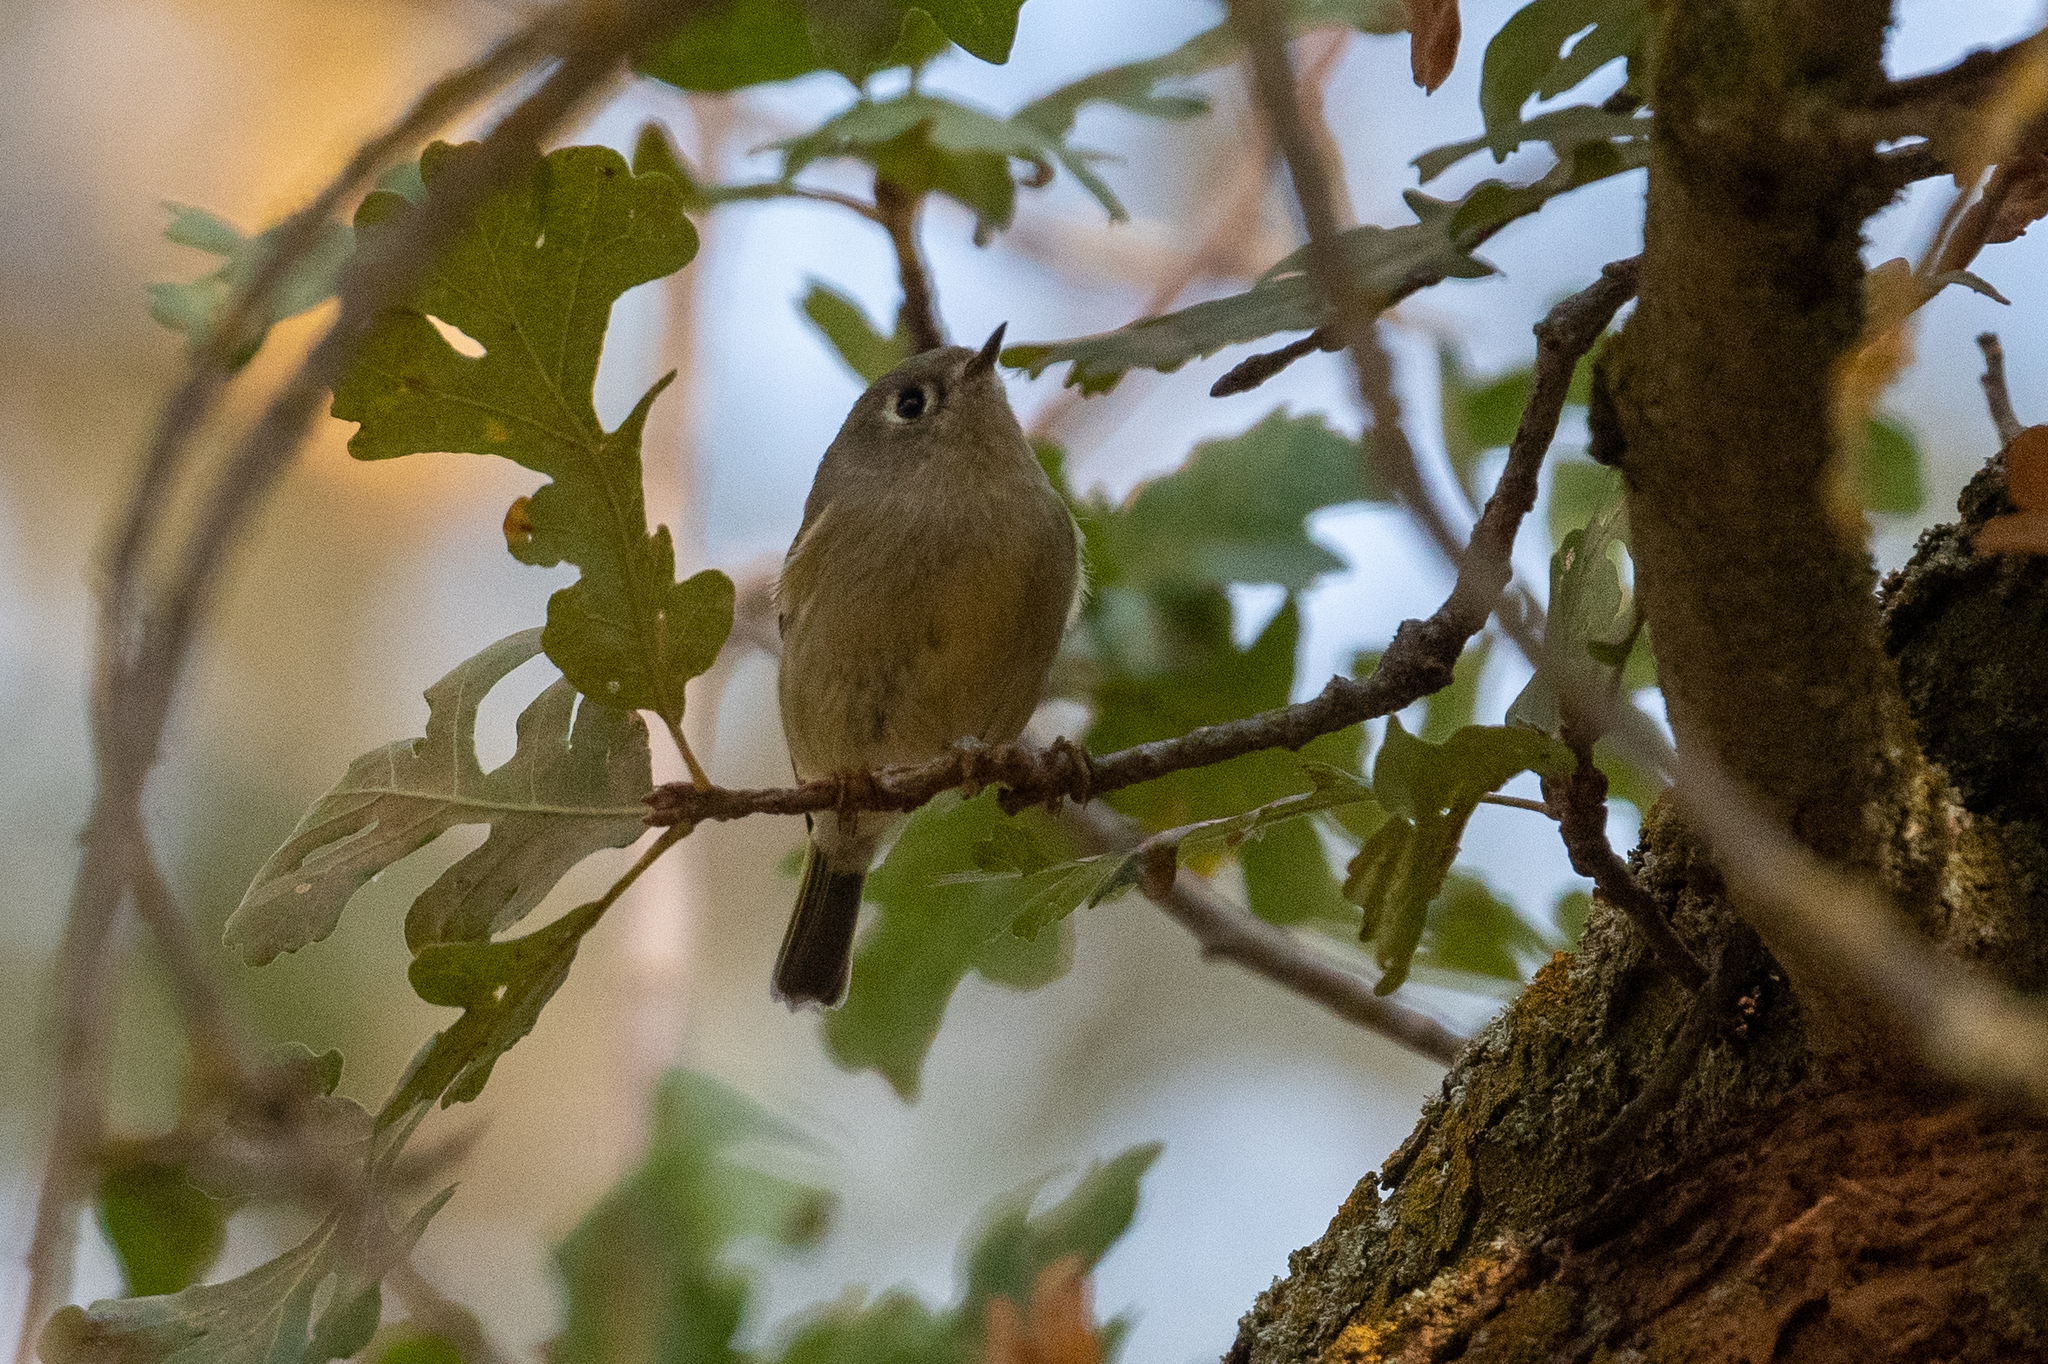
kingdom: Animalia
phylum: Chordata
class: Aves
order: Passeriformes
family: Regulidae
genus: Regulus
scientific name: Regulus calendula
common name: Ruby-crowned kinglet
